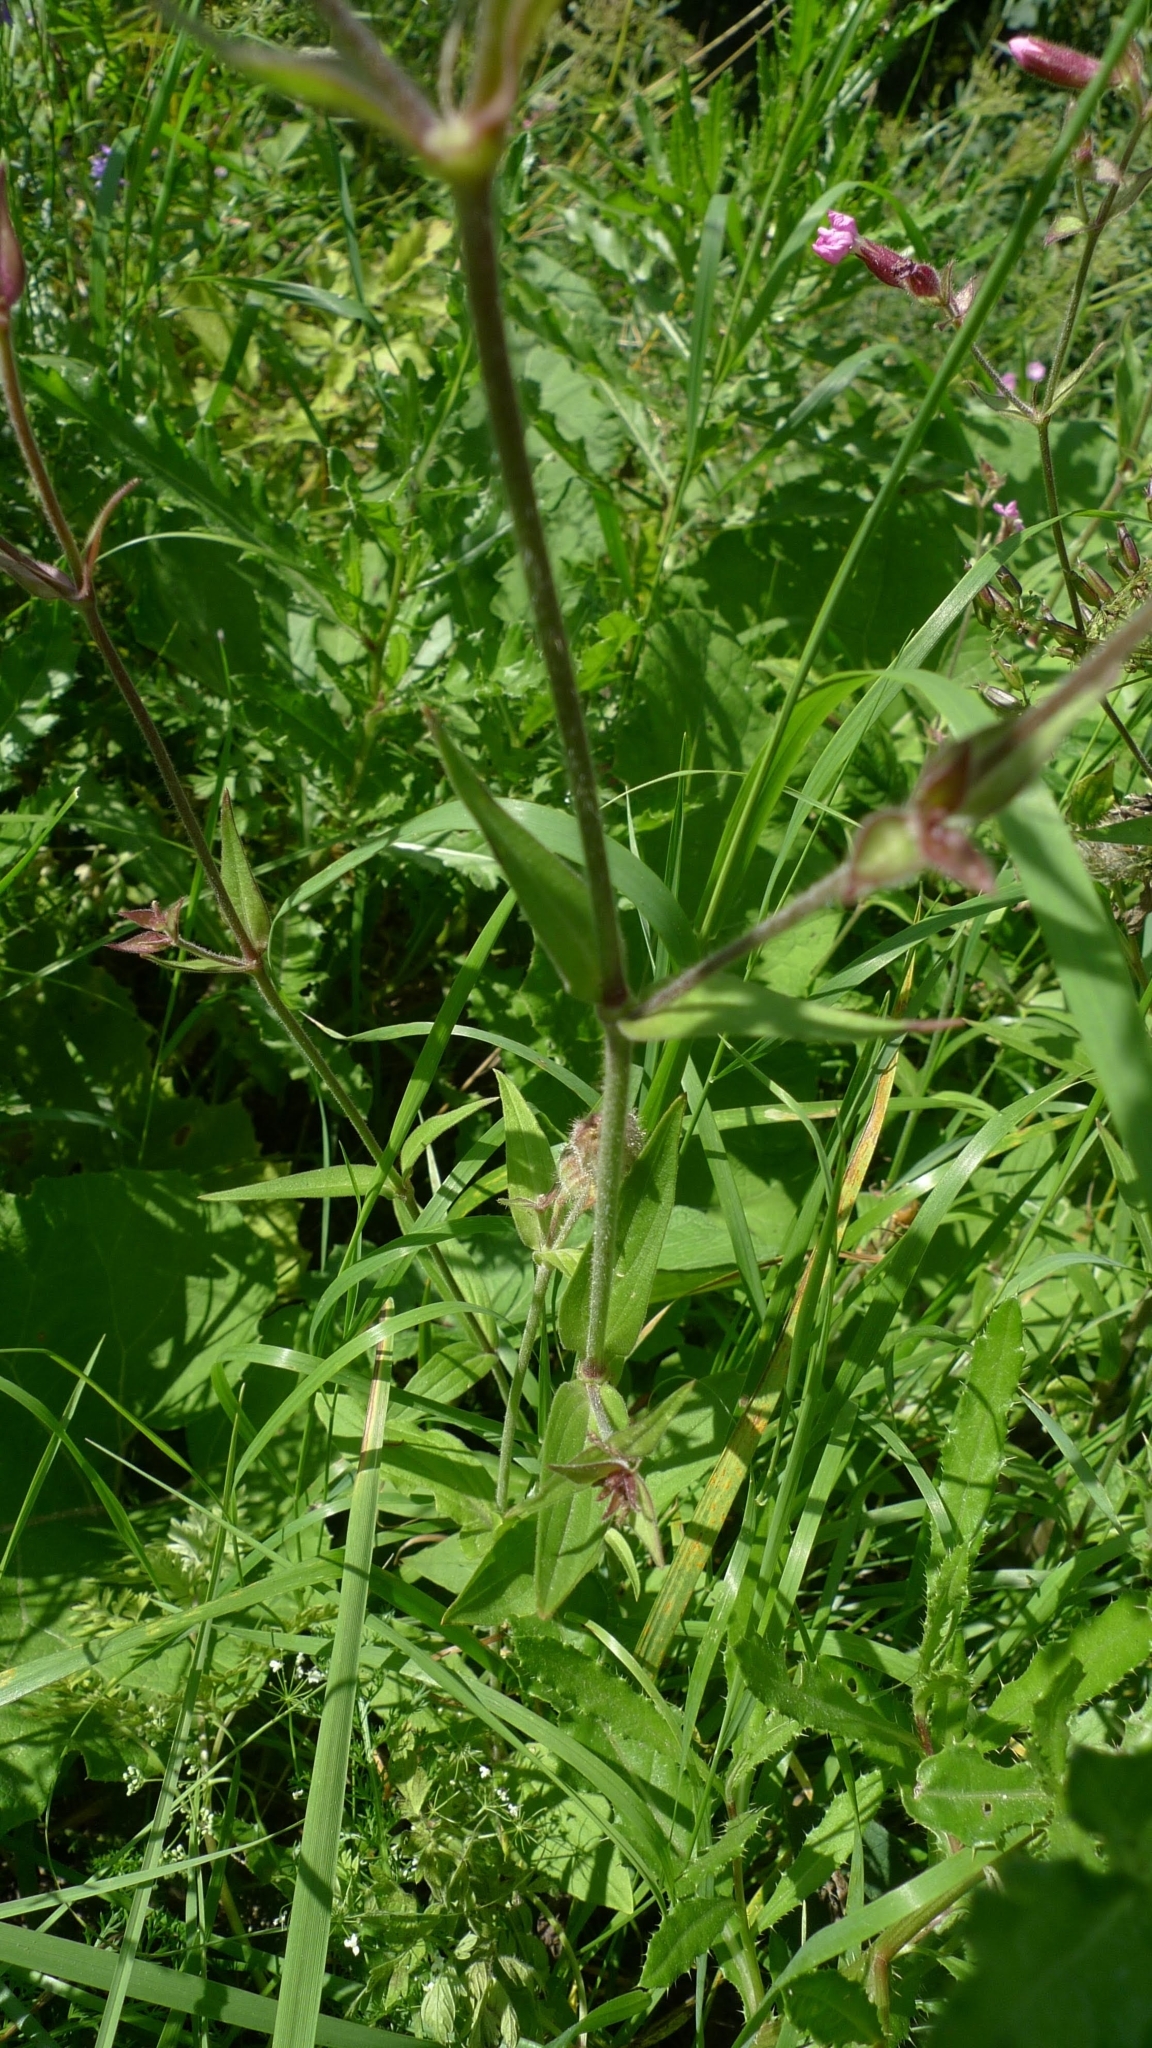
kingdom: Plantae
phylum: Tracheophyta
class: Magnoliopsida
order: Caryophyllales
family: Caryophyllaceae
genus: Silene
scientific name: Silene dioica
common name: Red campion
